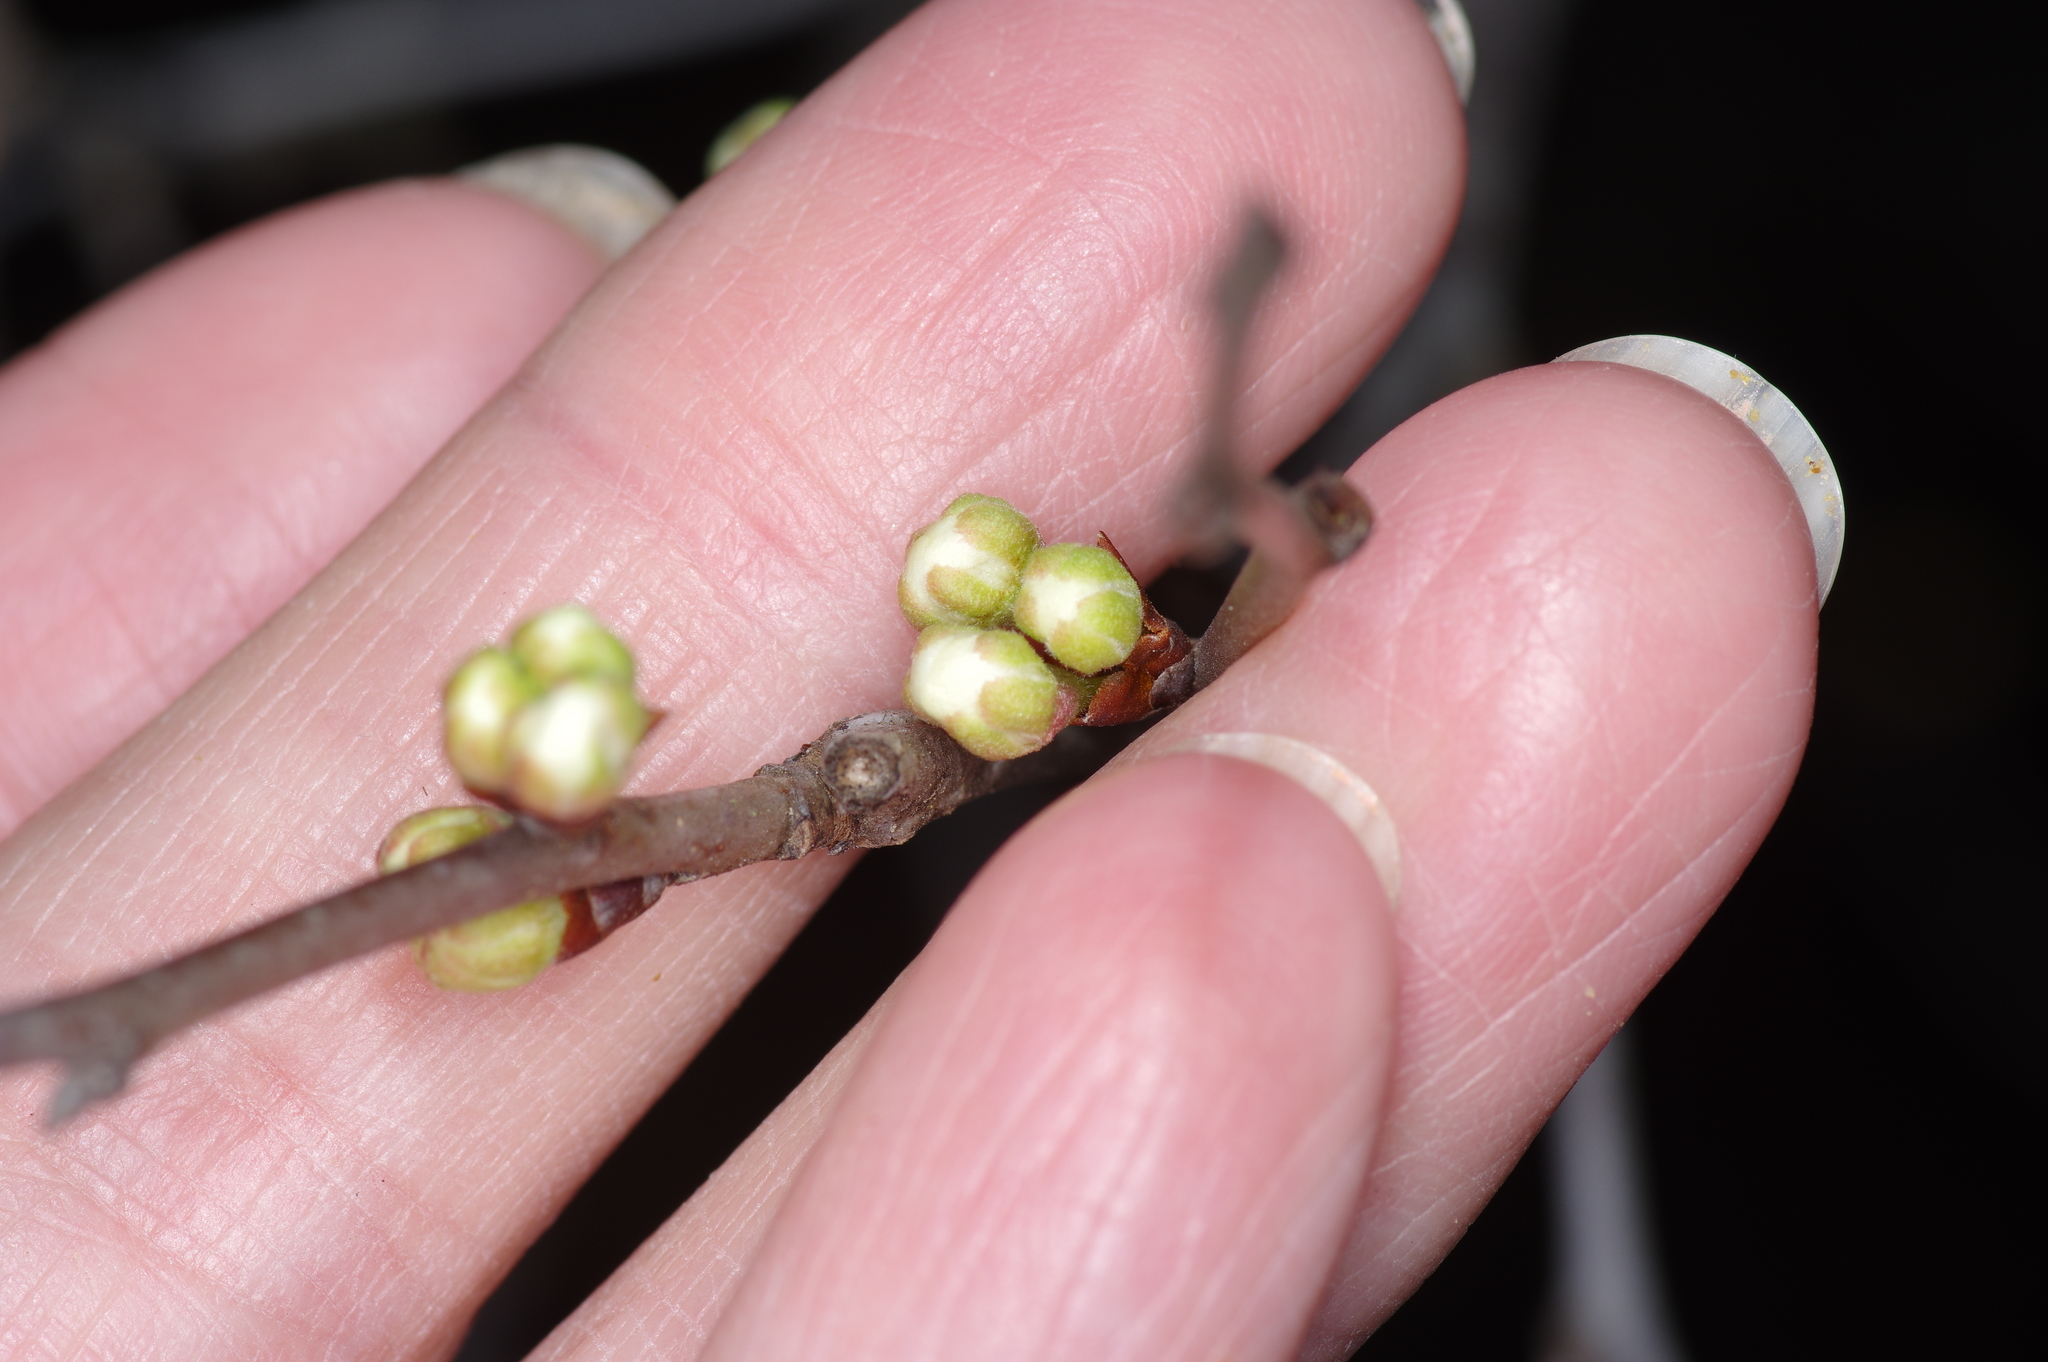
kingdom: Plantae
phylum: Tracheophyta
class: Magnoliopsida
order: Rosales
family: Rosaceae
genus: Prunus
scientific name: Prunus mexicana
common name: Mexican plum
